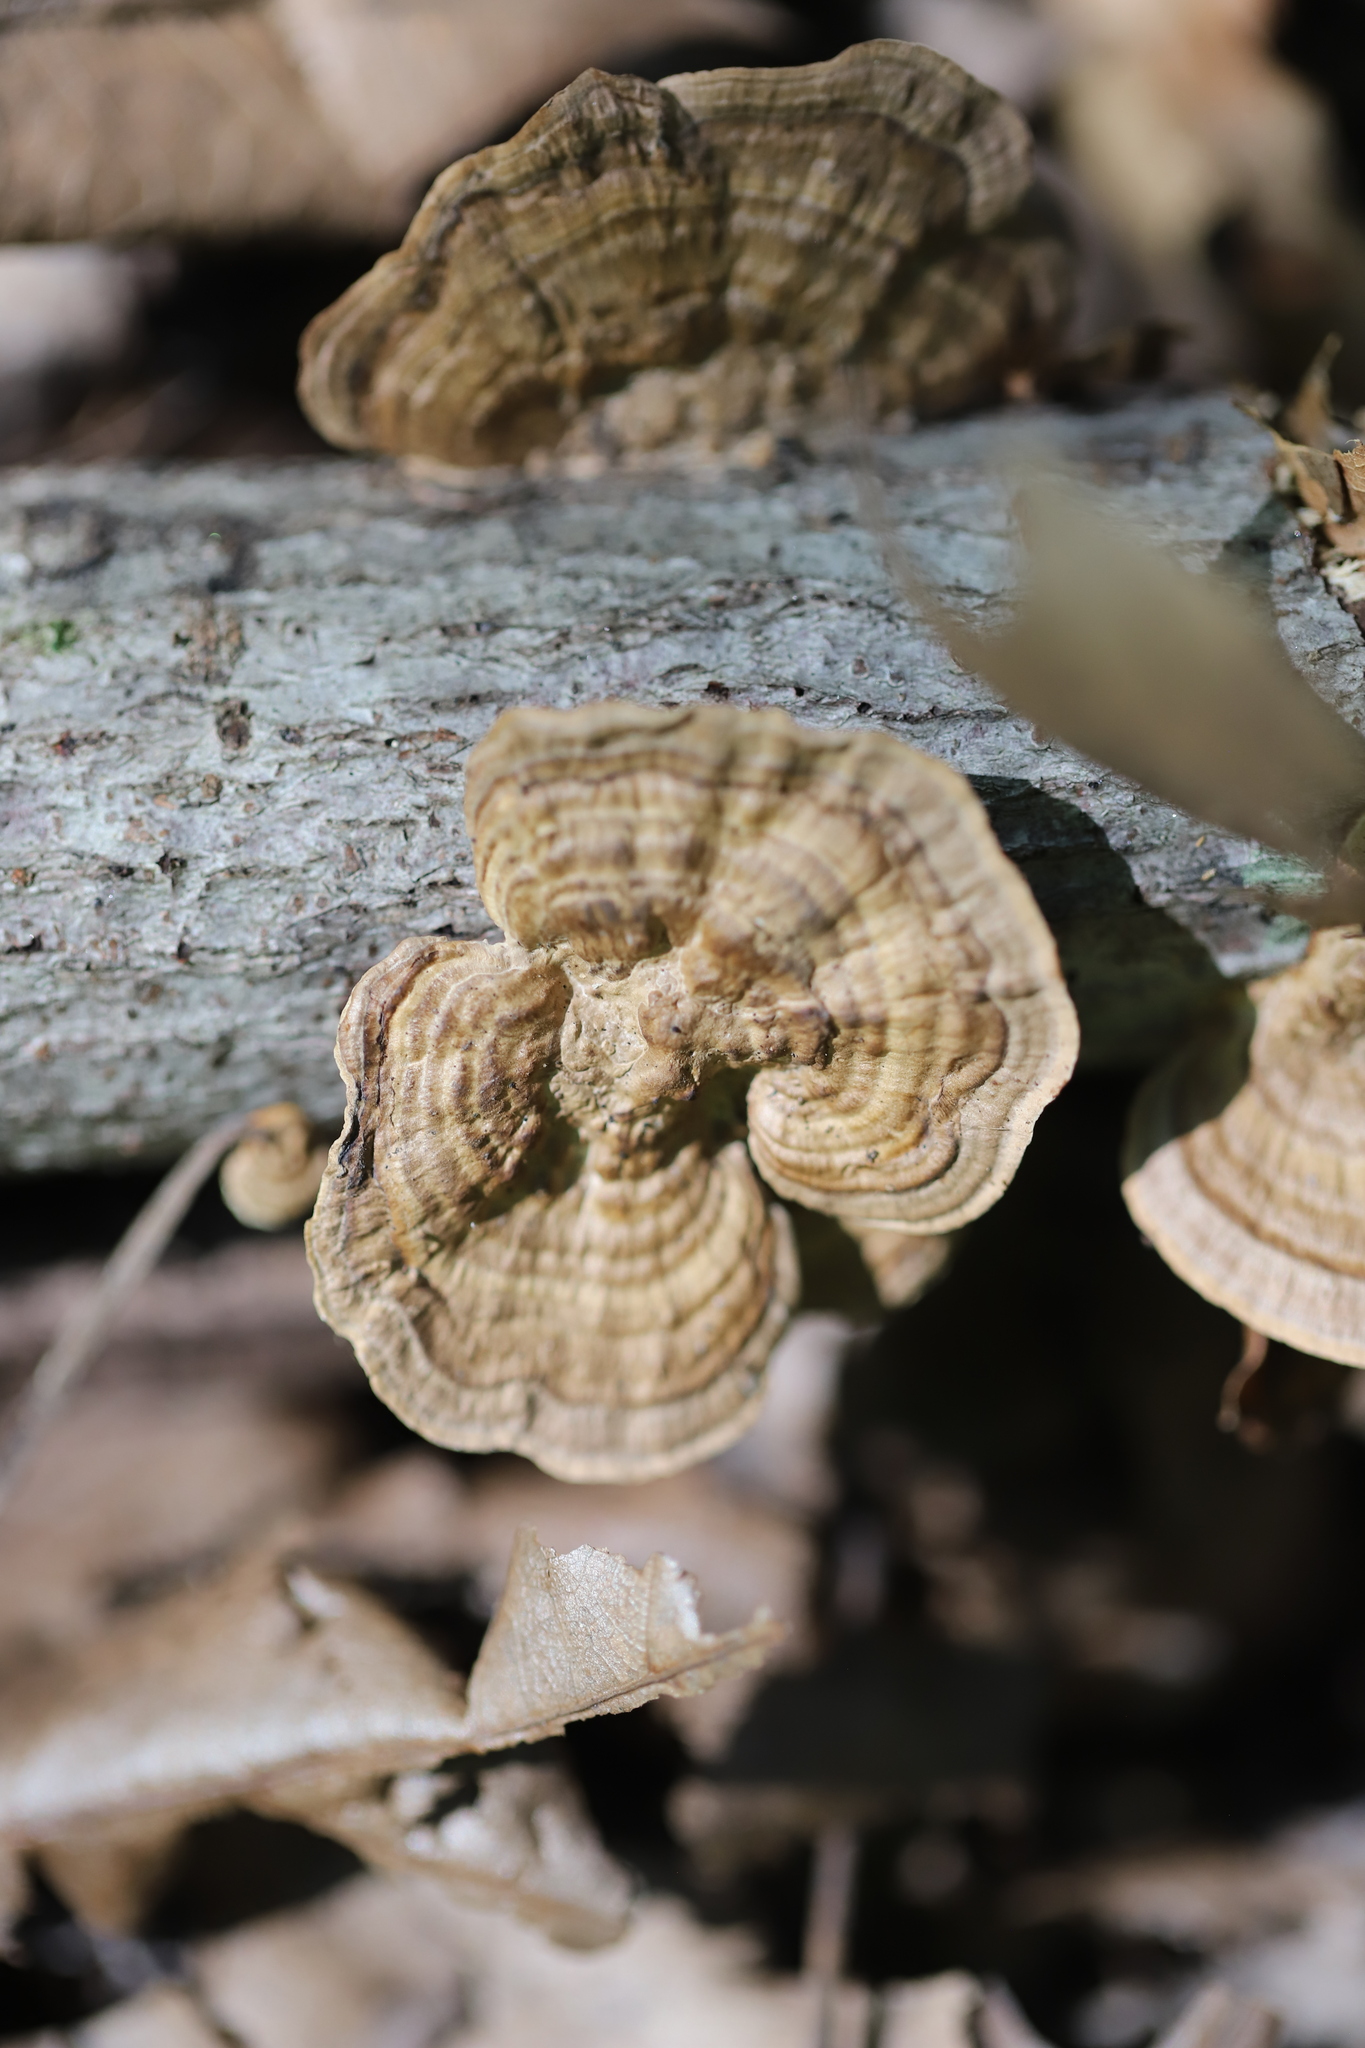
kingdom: Fungi
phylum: Basidiomycota
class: Agaricomycetes
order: Polyporales
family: Polyporaceae
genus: Daedaleopsis
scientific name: Daedaleopsis confragosa
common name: Blushing bracket
